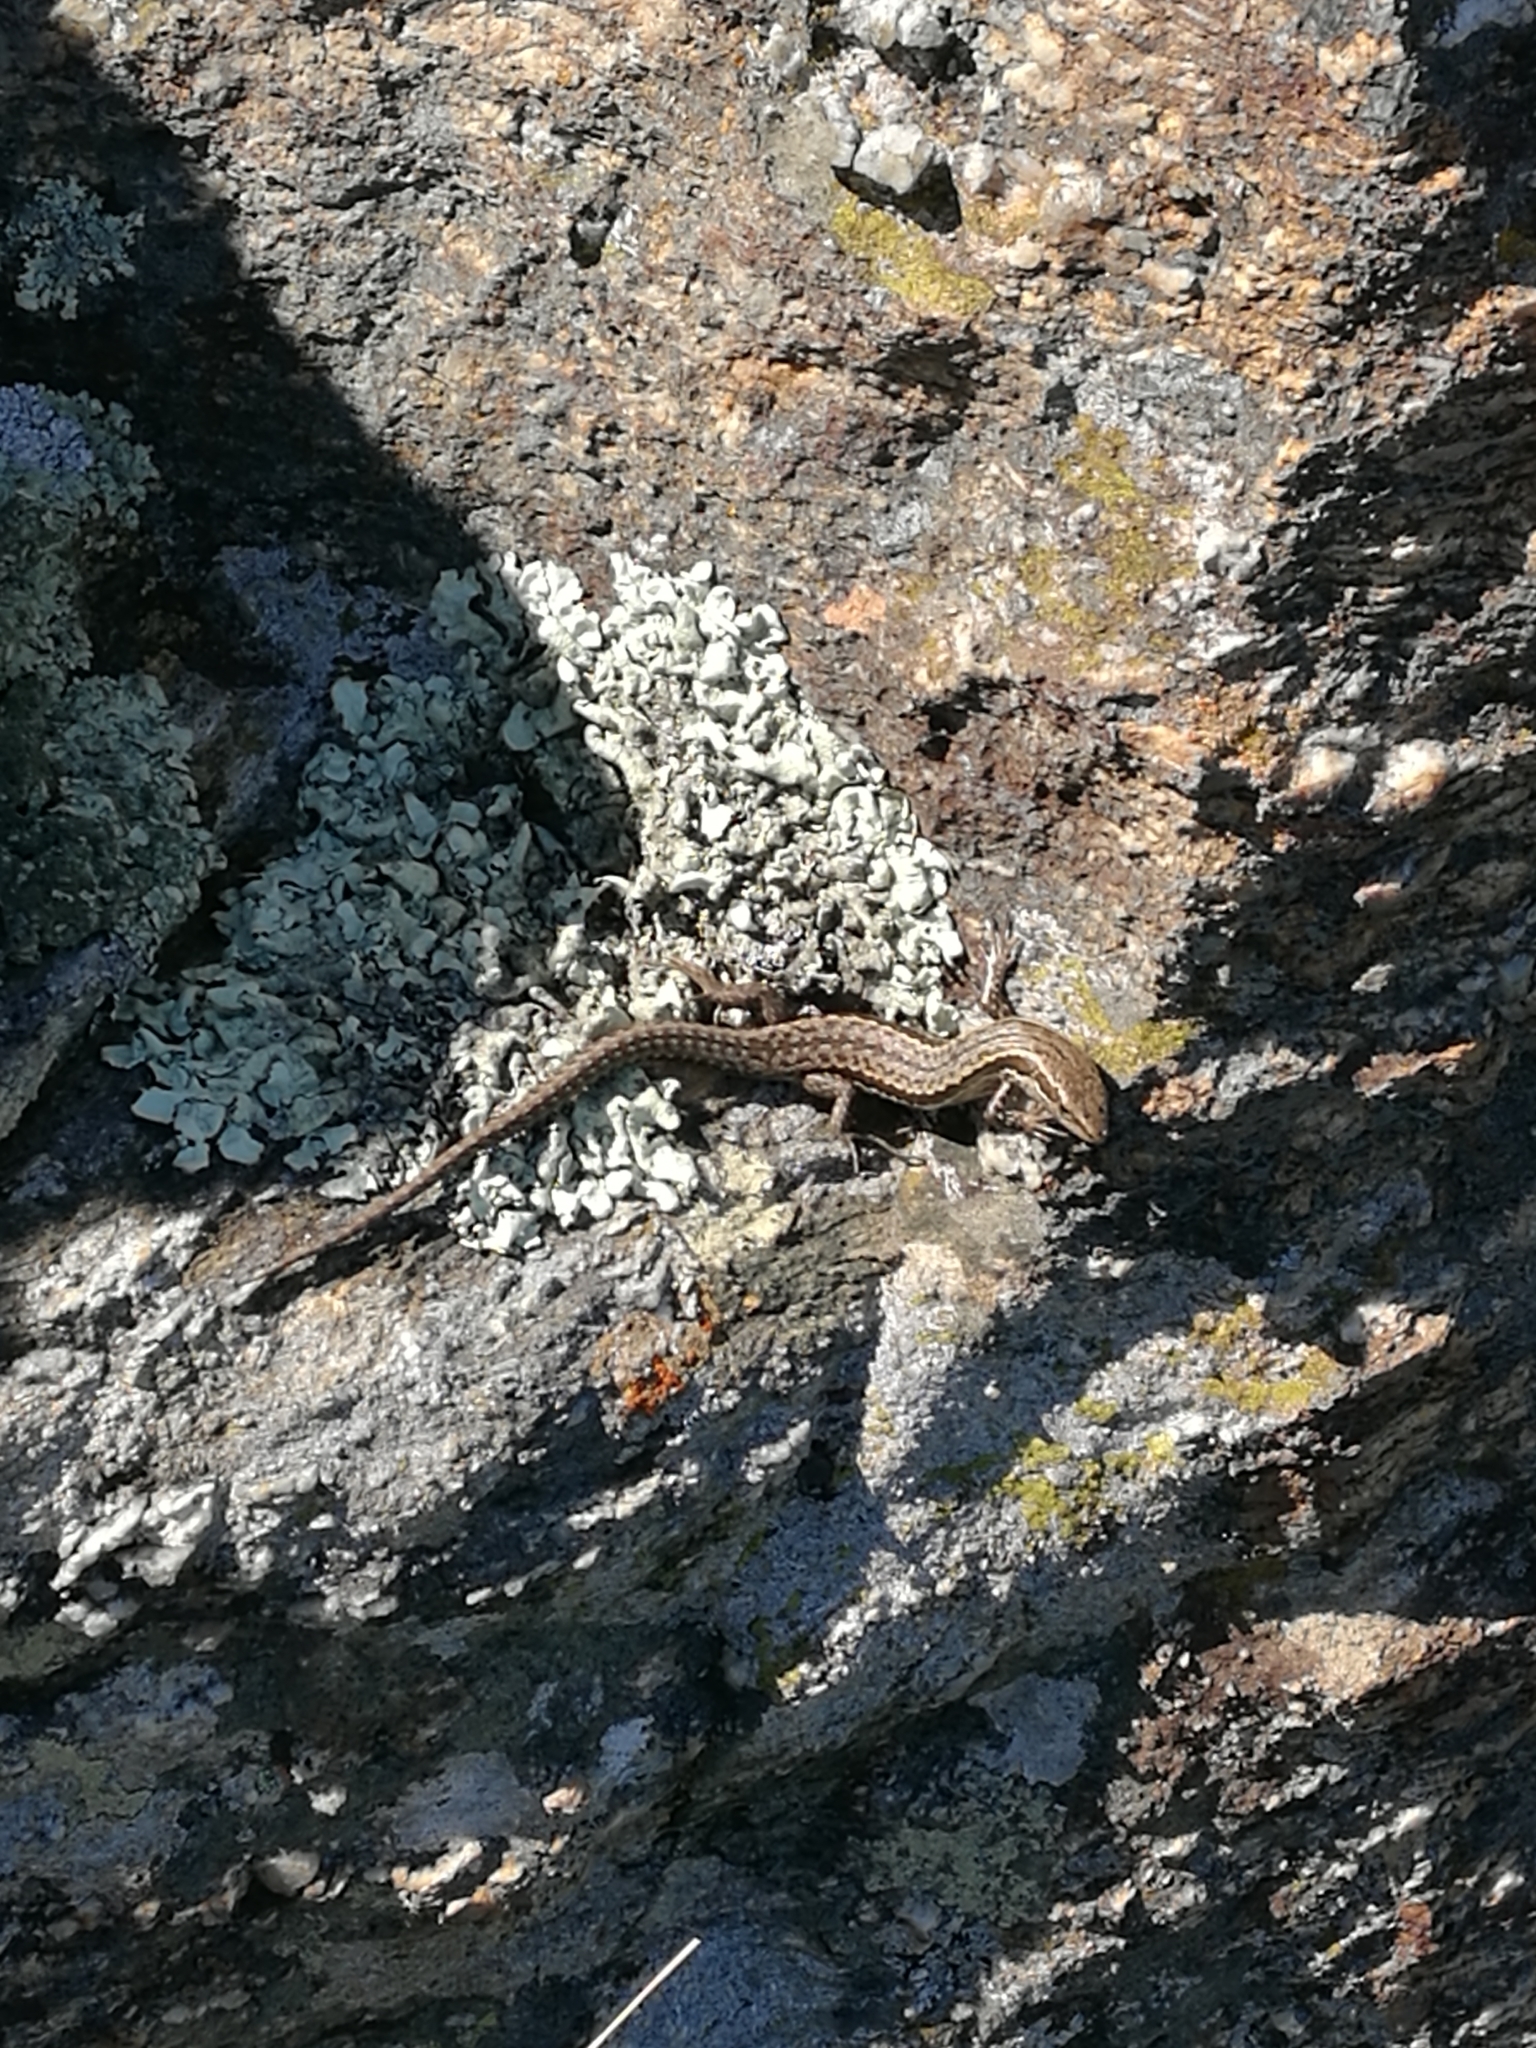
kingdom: Animalia
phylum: Chordata
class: Squamata
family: Scincidae
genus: Oligosoma
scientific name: Oligosoma maccanni
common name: Mccann’s skink
